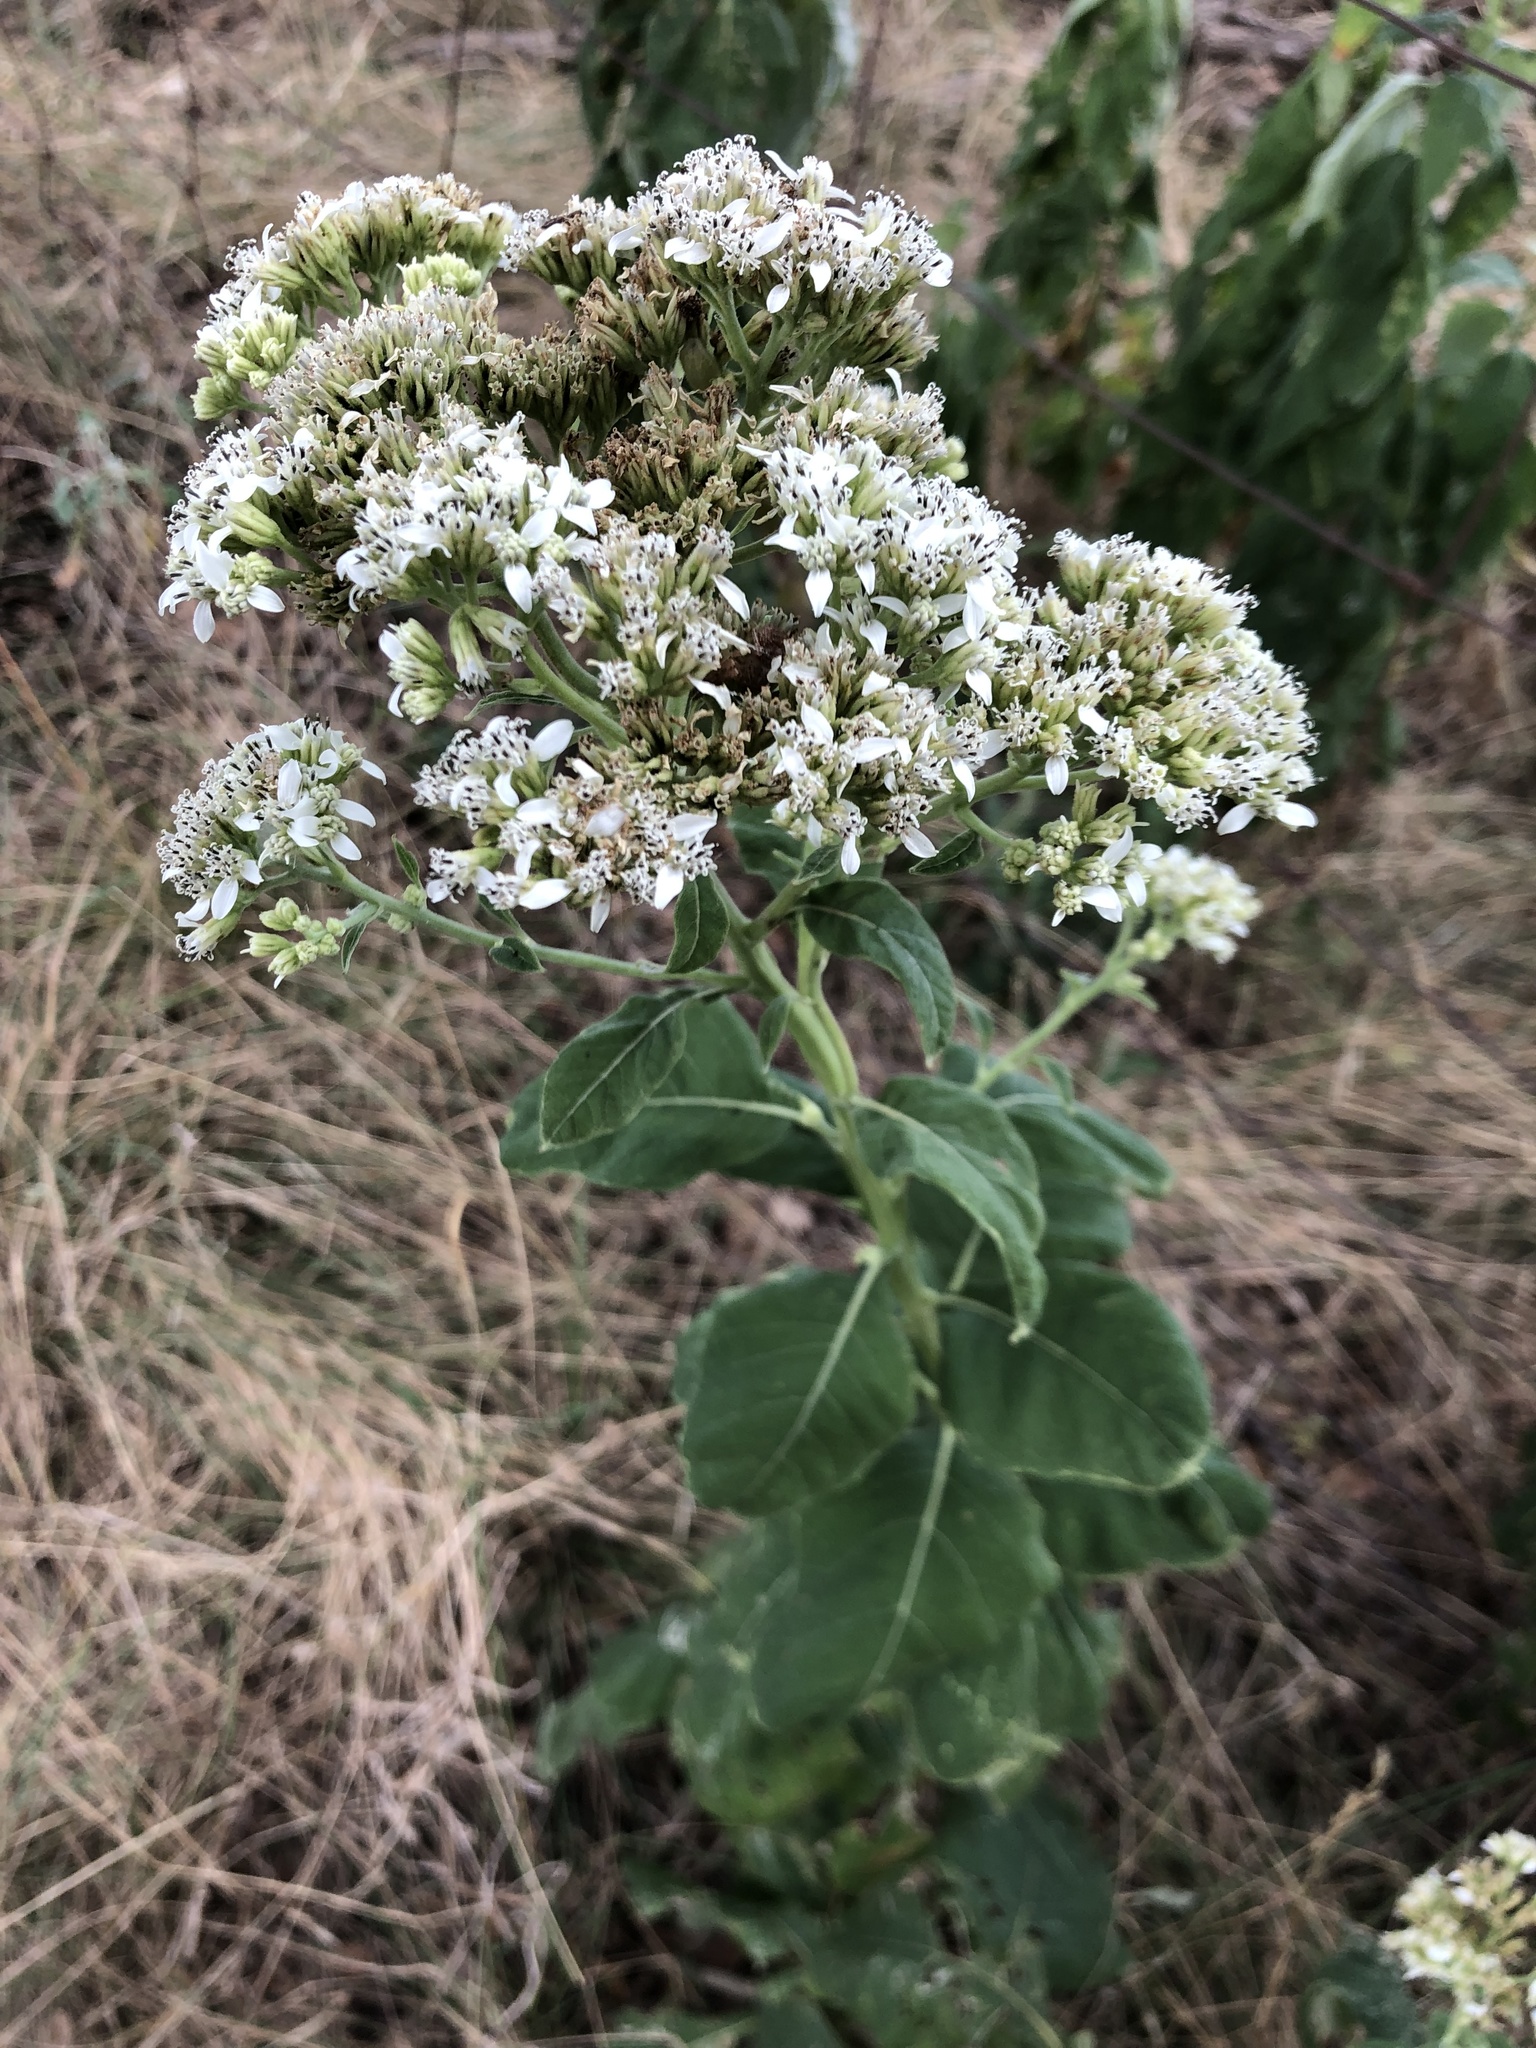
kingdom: Plantae
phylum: Tracheophyta
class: Magnoliopsida
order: Asterales
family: Asteraceae
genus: Verbesina
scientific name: Verbesina virginica
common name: Frostweed
